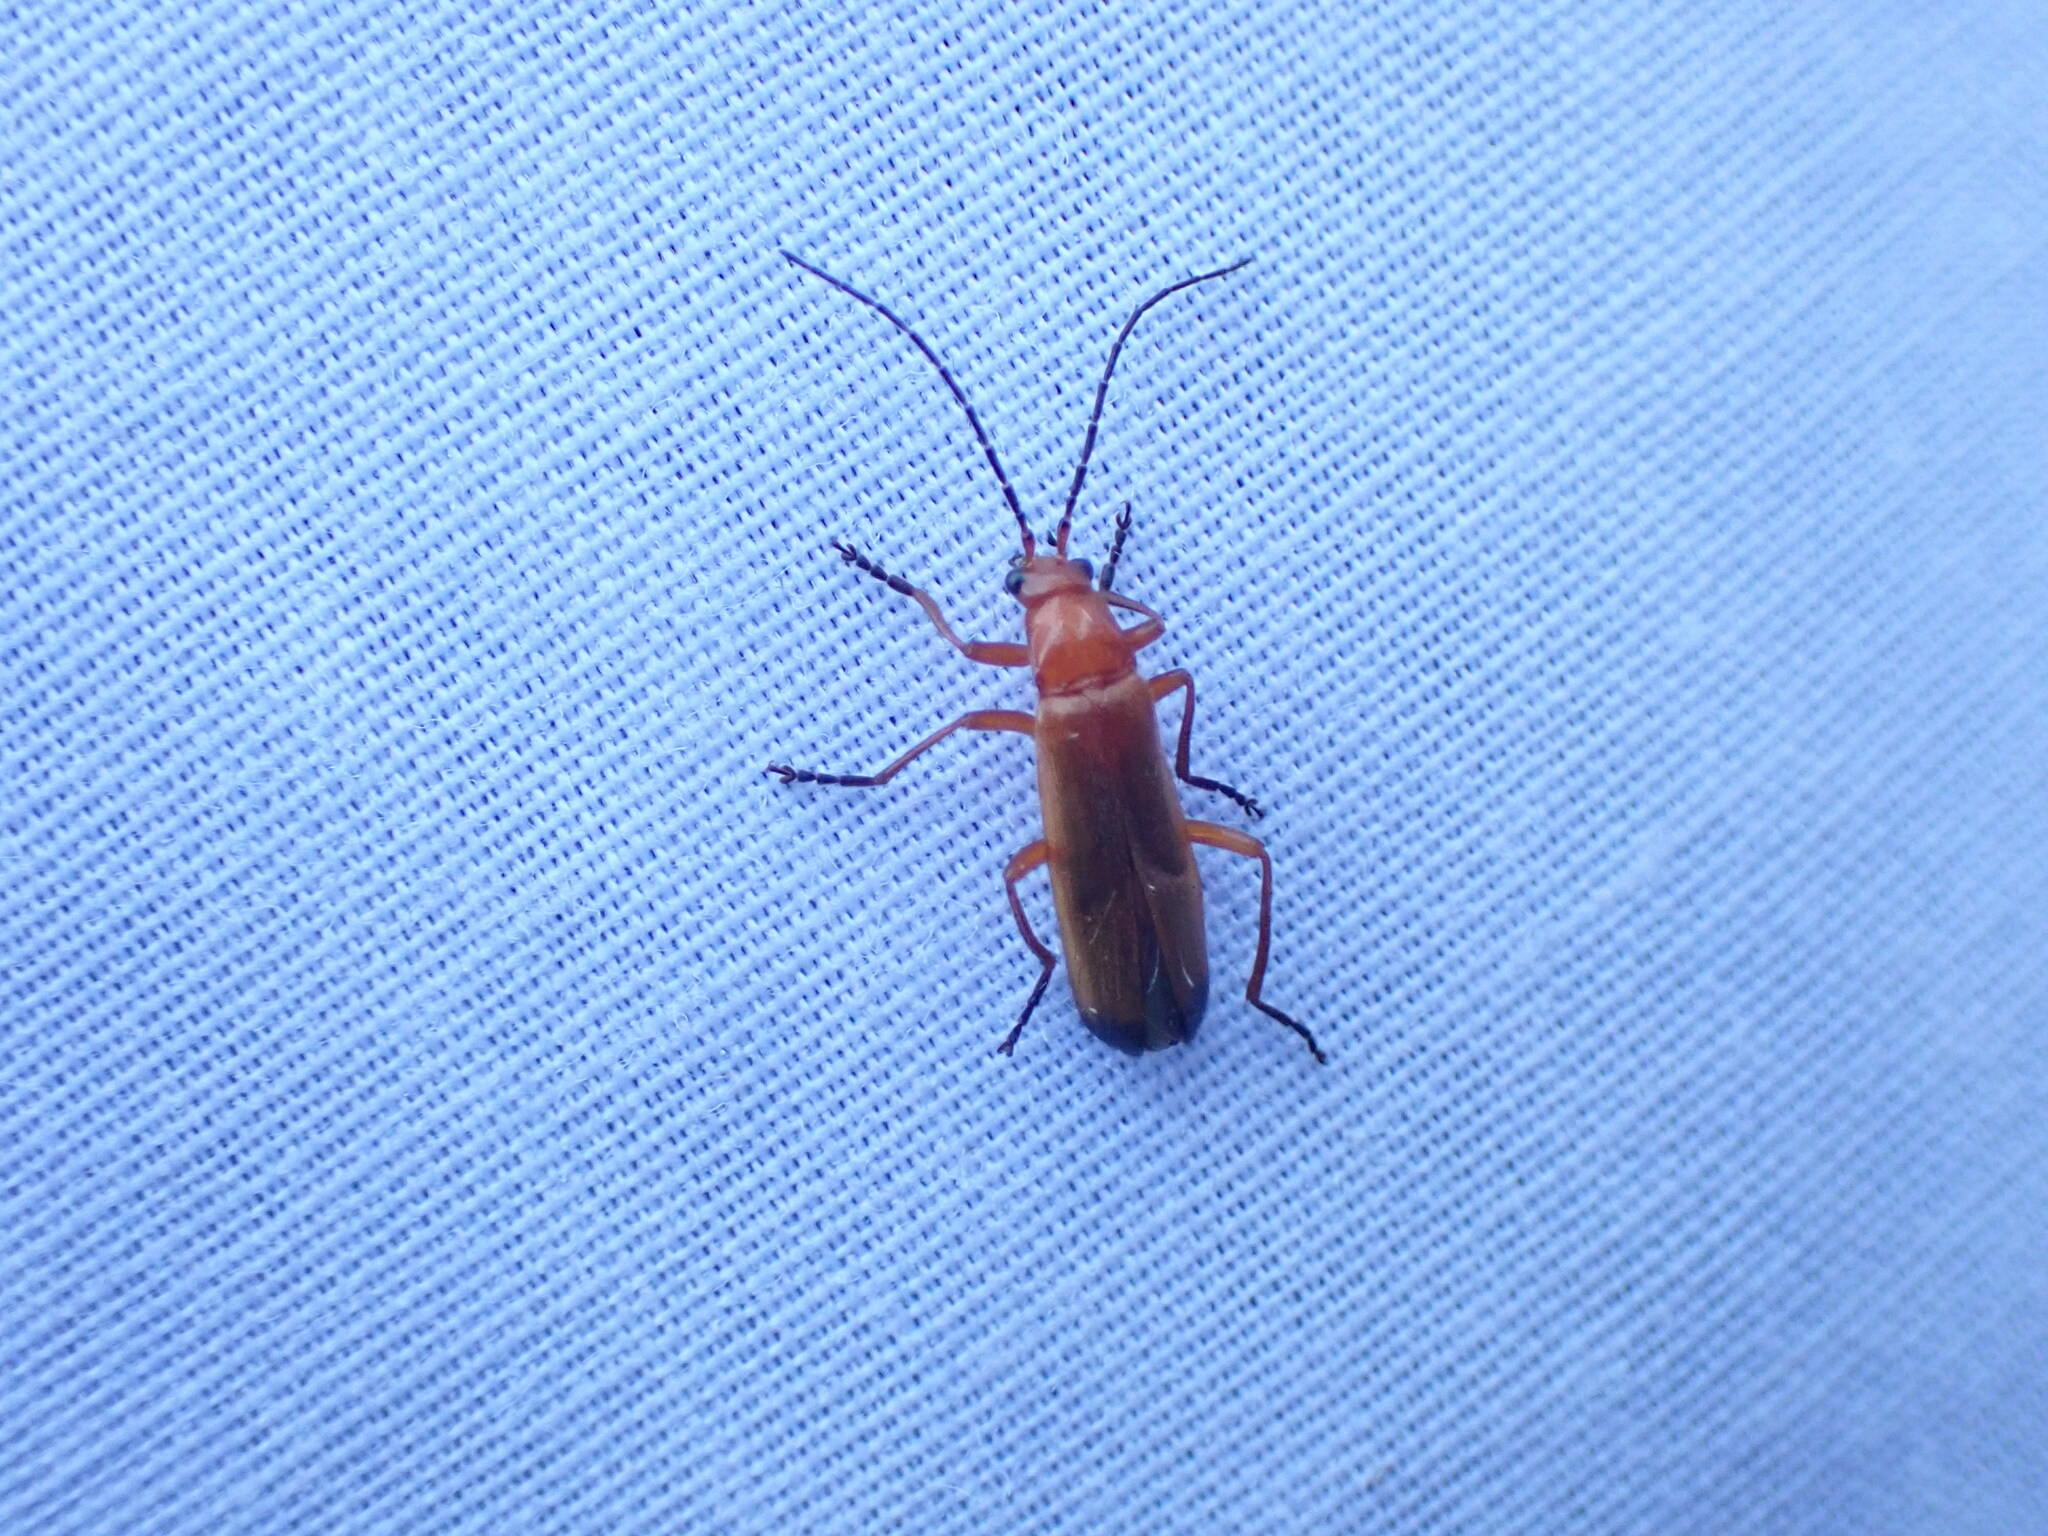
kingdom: Animalia
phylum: Arthropoda
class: Insecta
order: Coleoptera
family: Cantharidae
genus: Rhagonycha
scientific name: Rhagonycha fulva
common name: Common red soldier beetle
